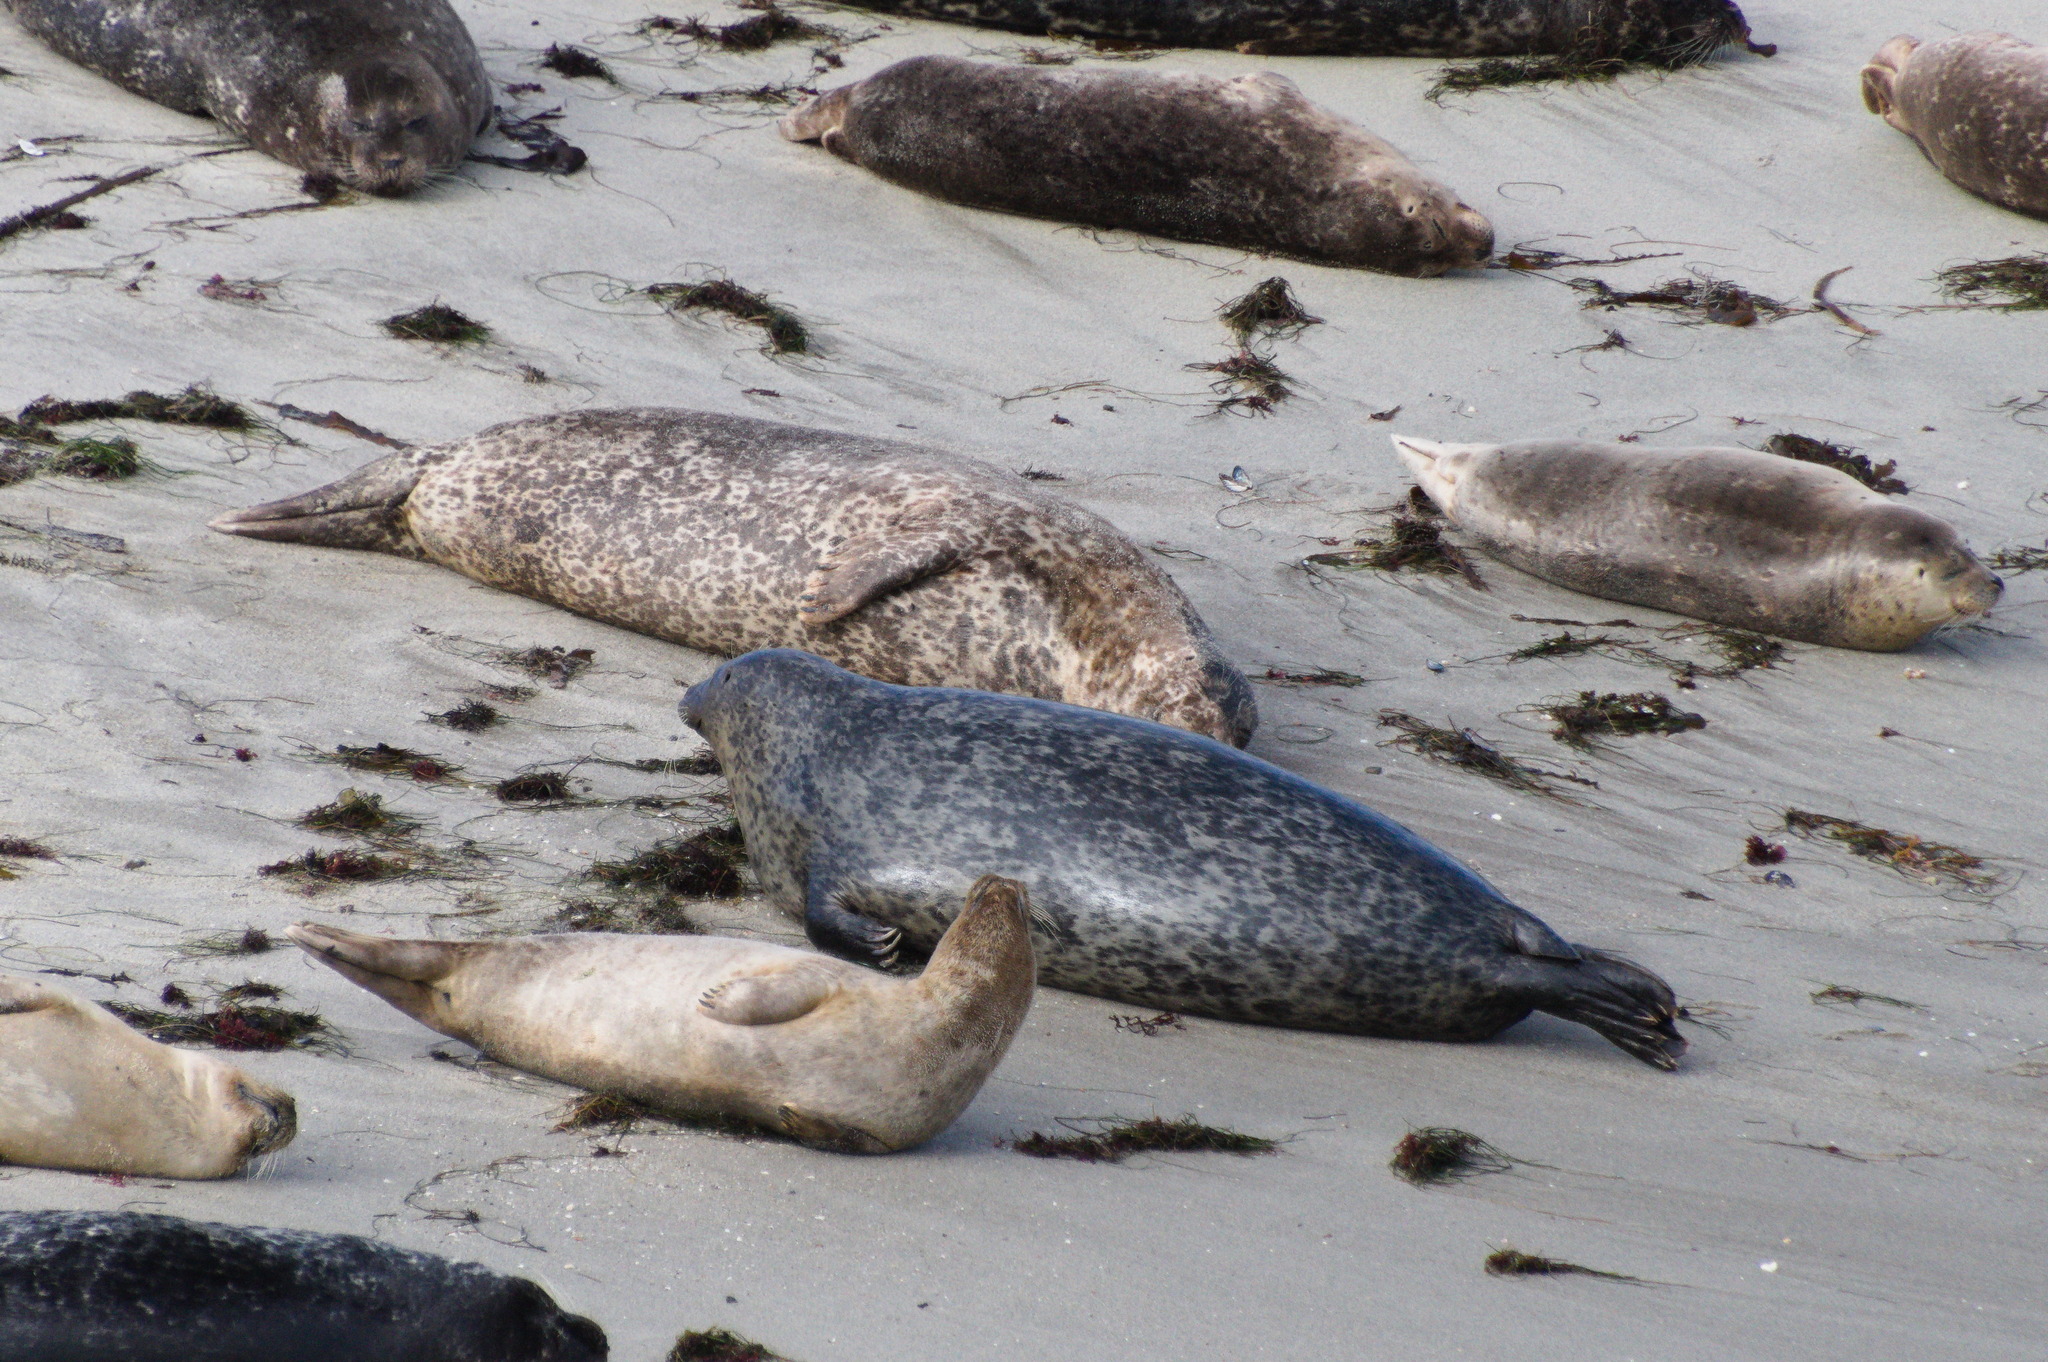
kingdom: Animalia
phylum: Chordata
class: Mammalia
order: Carnivora
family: Phocidae
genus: Phoca
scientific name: Phoca vitulina
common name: Harbor seal
